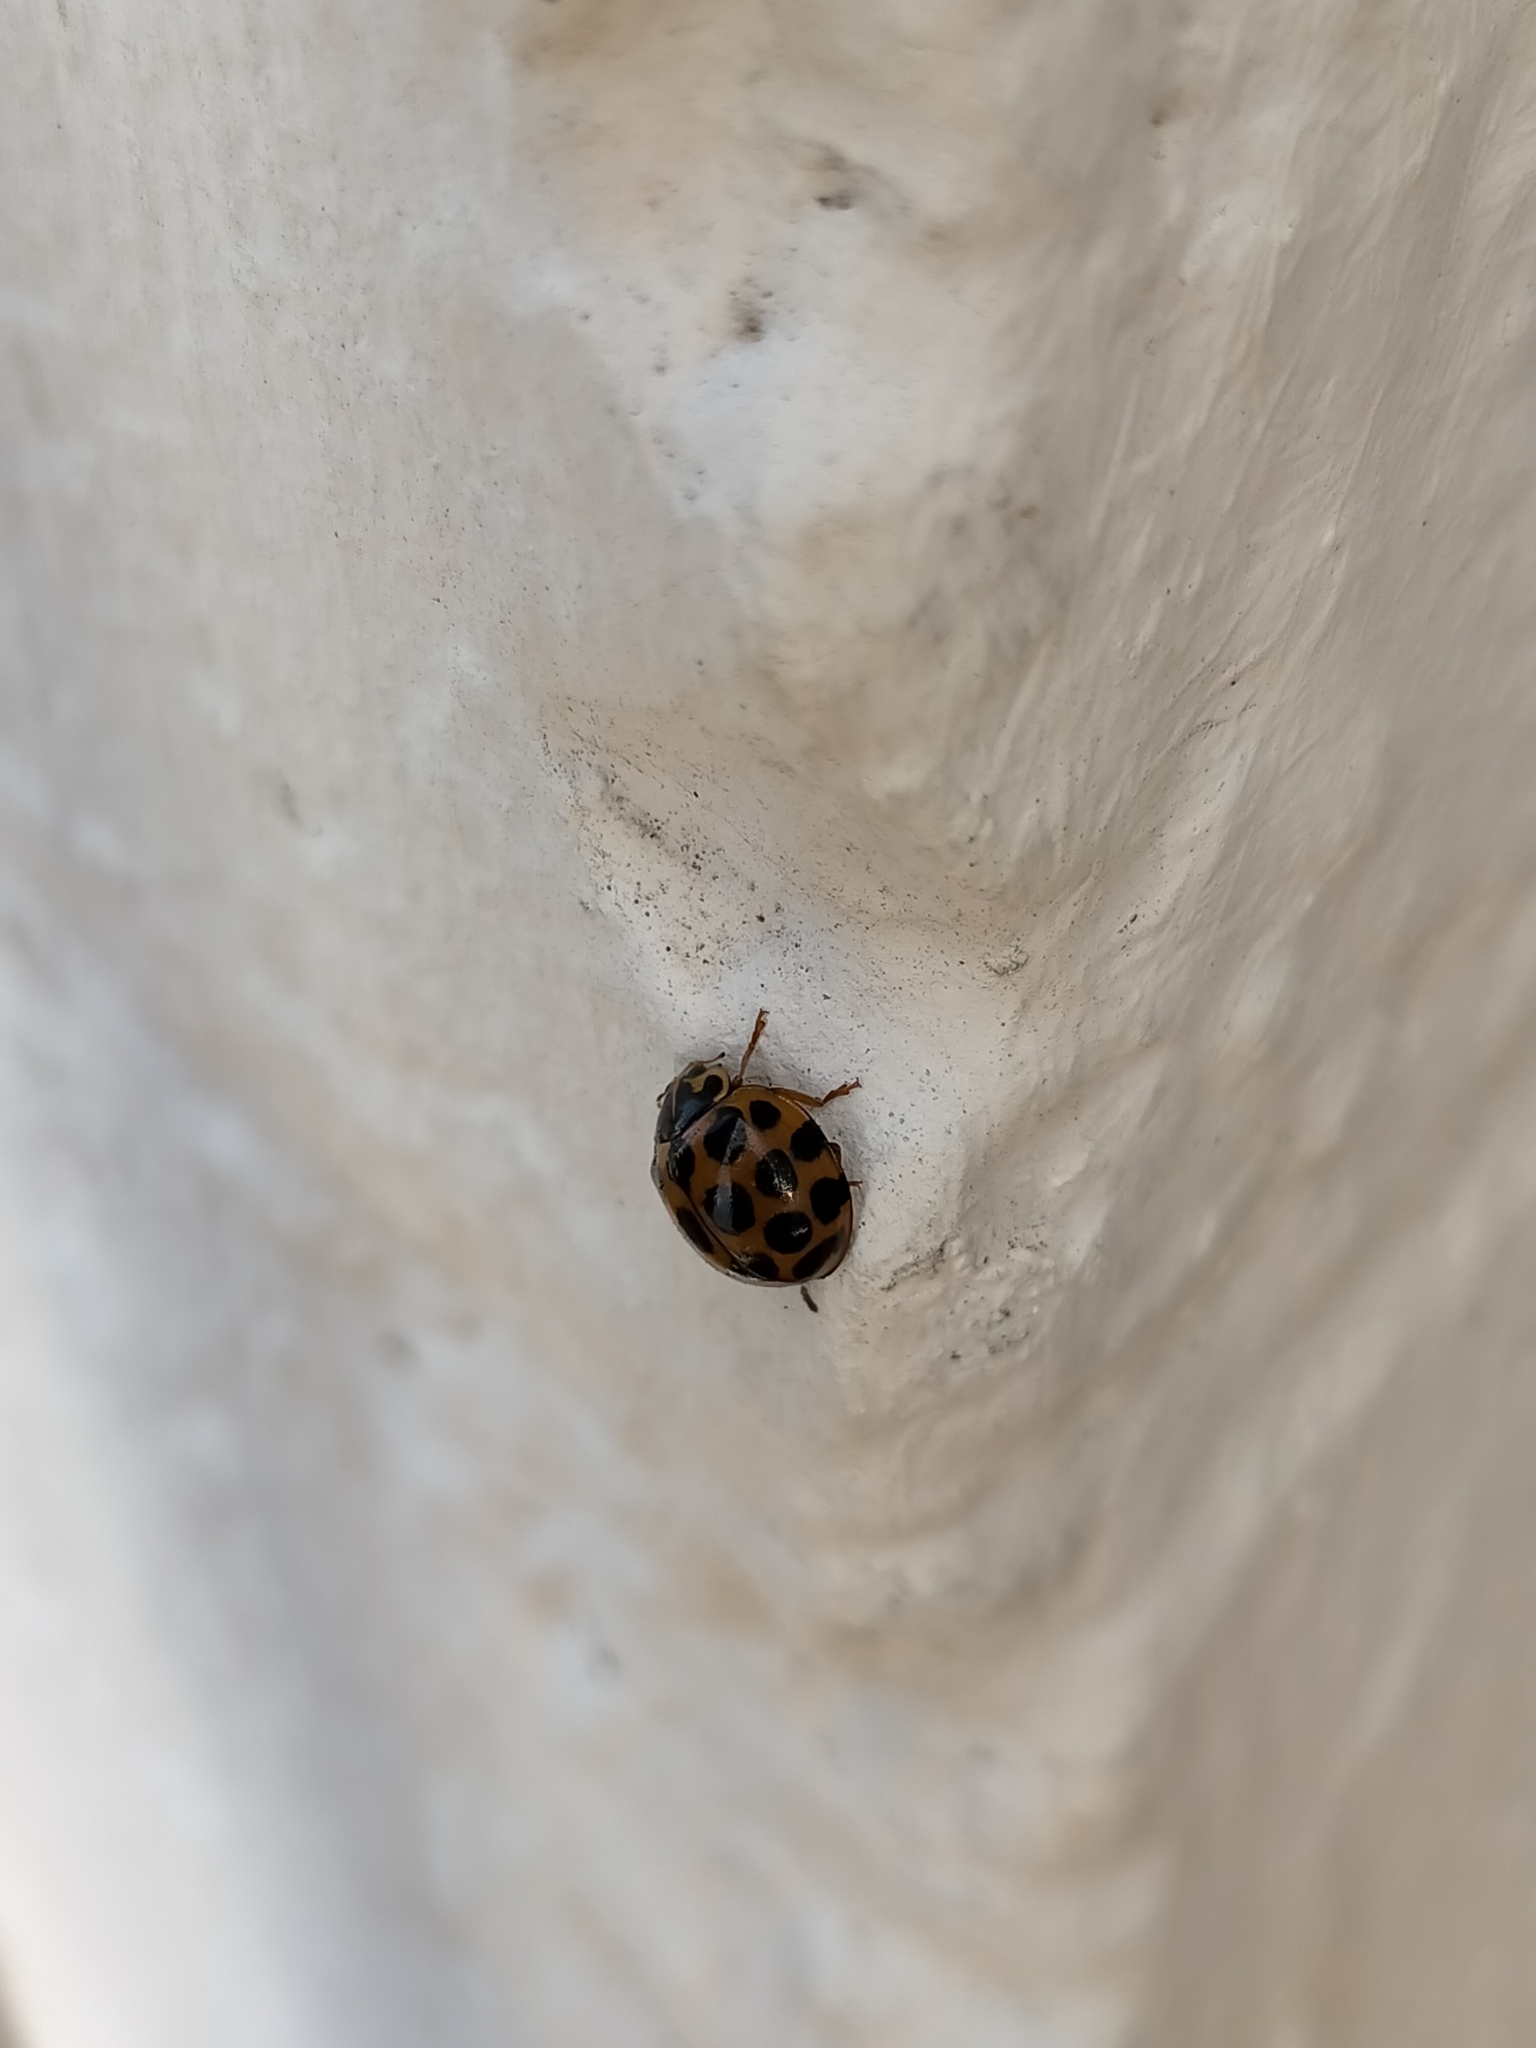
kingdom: Animalia
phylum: Arthropoda
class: Insecta
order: Coleoptera
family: Coccinellidae
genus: Harmonia
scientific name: Harmonia conformis
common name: Common spotted ladybird beetle
